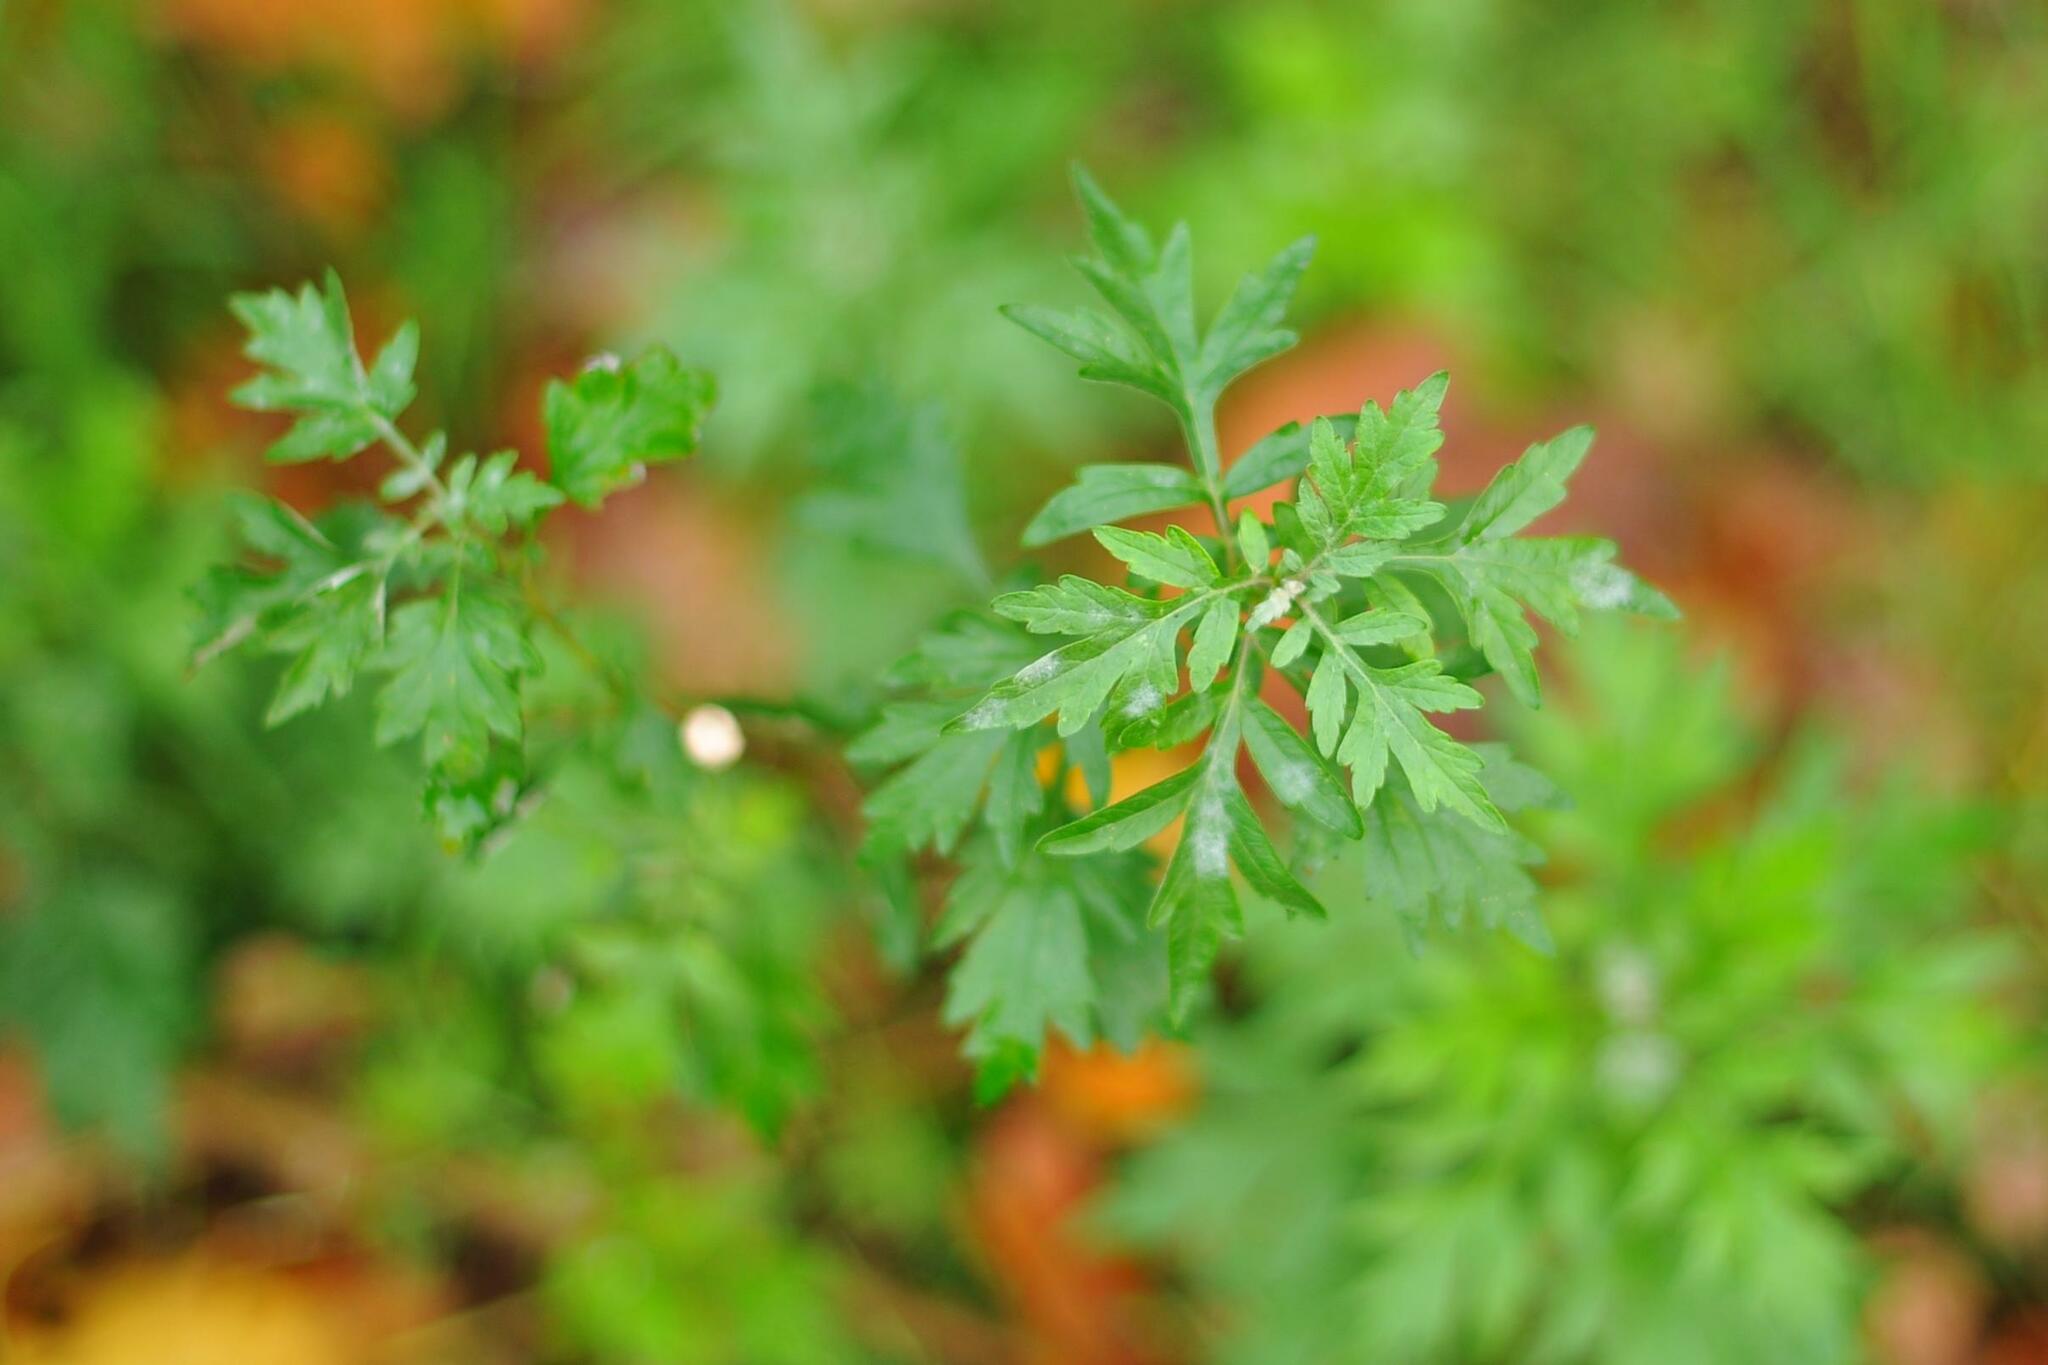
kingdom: Plantae
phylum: Tracheophyta
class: Magnoliopsida
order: Asterales
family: Asteraceae
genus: Artemisia
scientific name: Artemisia vulgaris
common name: Mugwort
